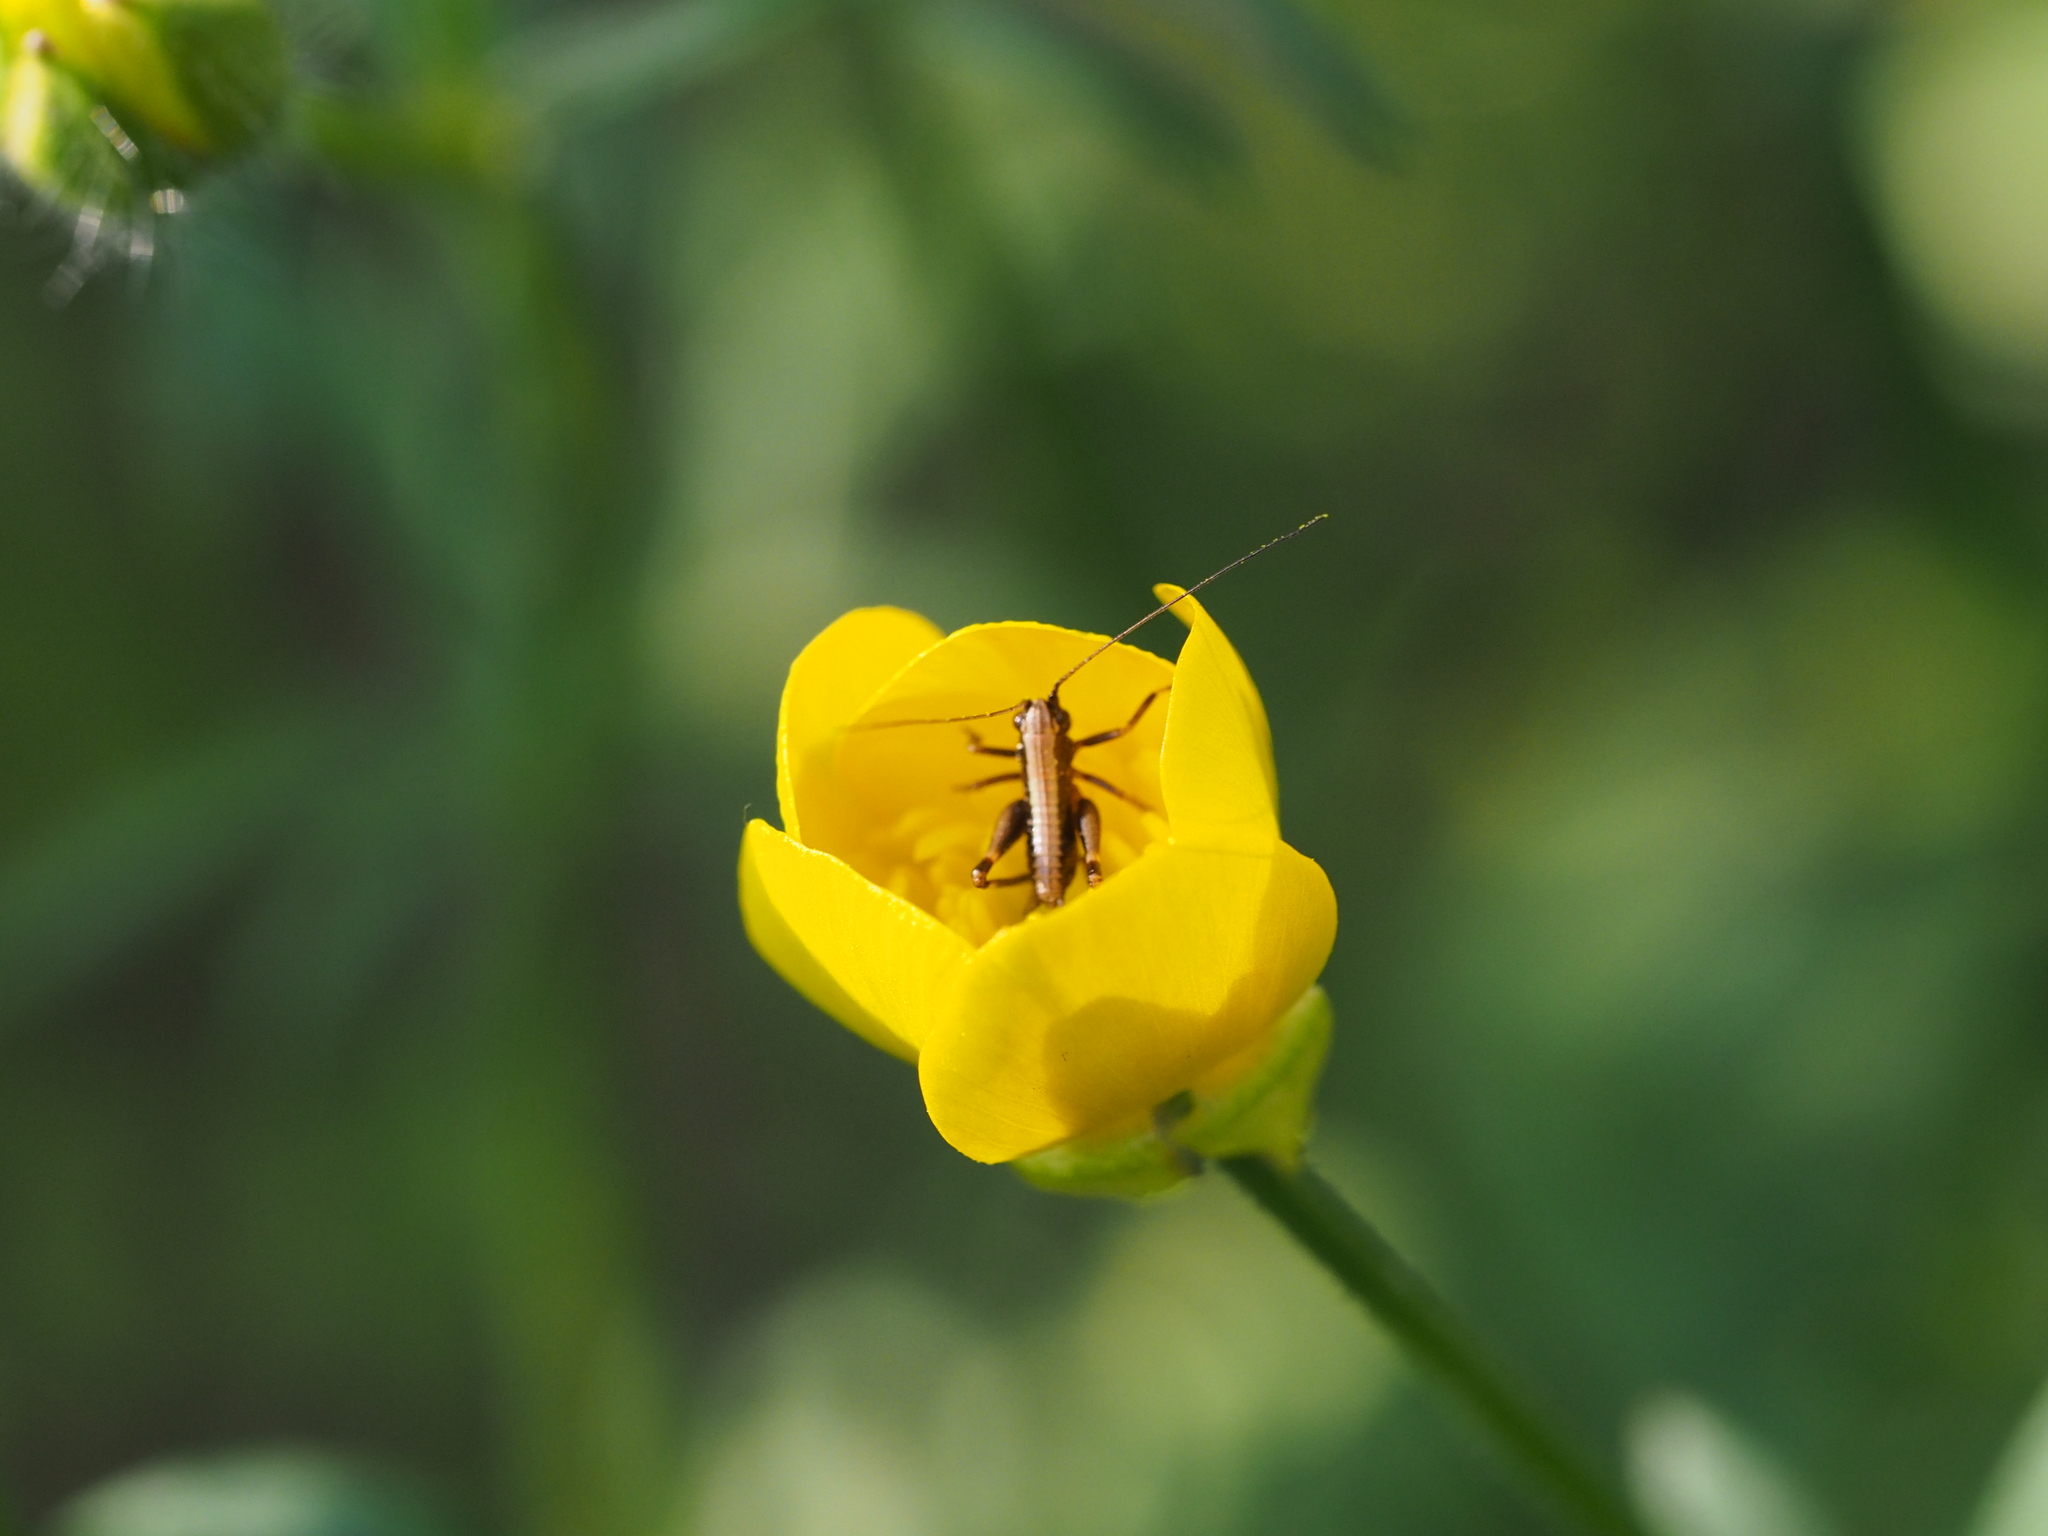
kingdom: Animalia
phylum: Arthropoda
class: Insecta
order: Orthoptera
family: Tettigoniidae
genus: Pholidoptera
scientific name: Pholidoptera griseoaptera
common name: Dark bush-cricket
